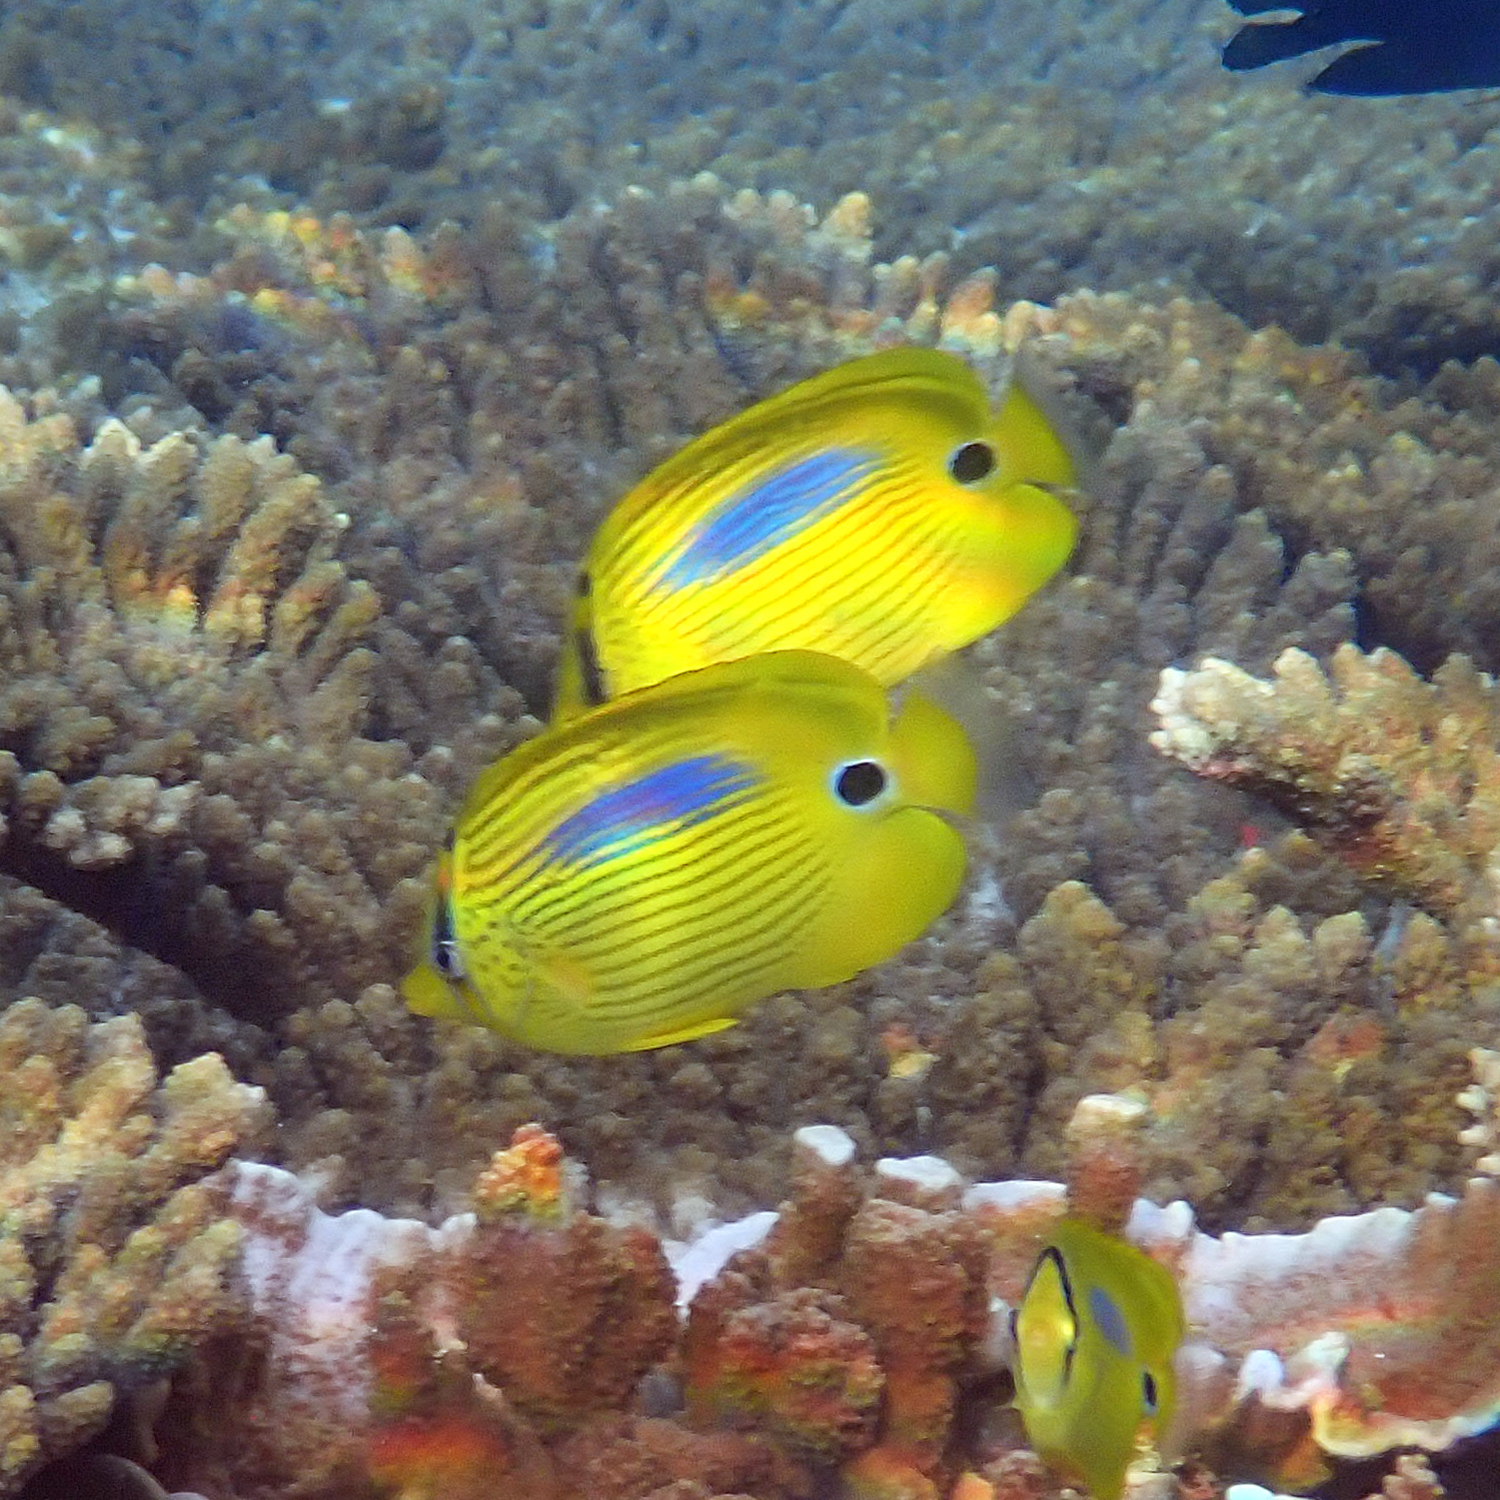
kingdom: Animalia
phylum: Chordata
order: Perciformes
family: Chaetodontidae
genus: Chaetodon
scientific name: Chaetodon plebeius
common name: Bluespot butterflyfish
